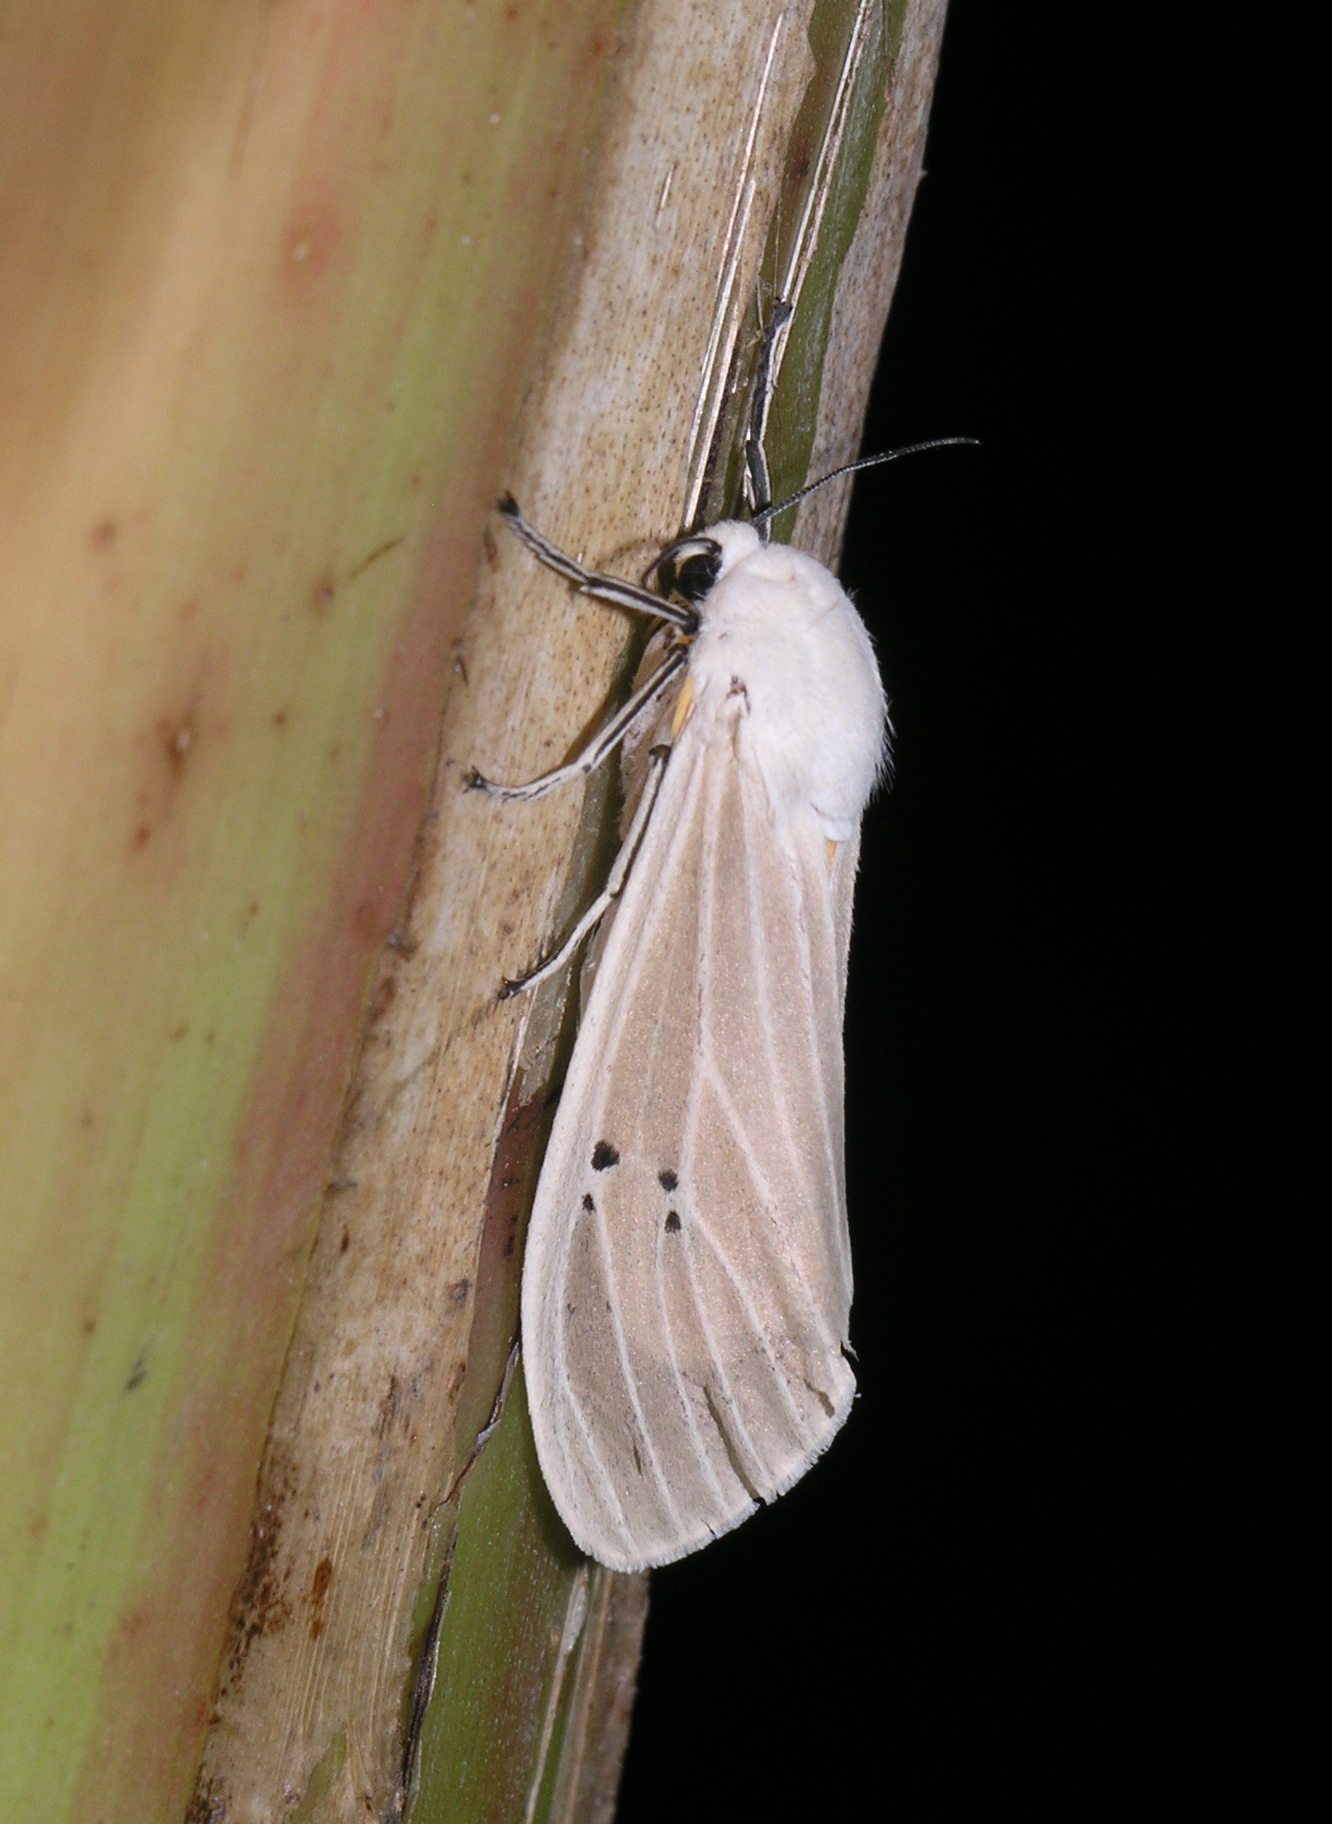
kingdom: Animalia
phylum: Arthropoda
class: Insecta
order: Lepidoptera
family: Erebidae
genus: Creatonotos
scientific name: Creatonotos transiens
